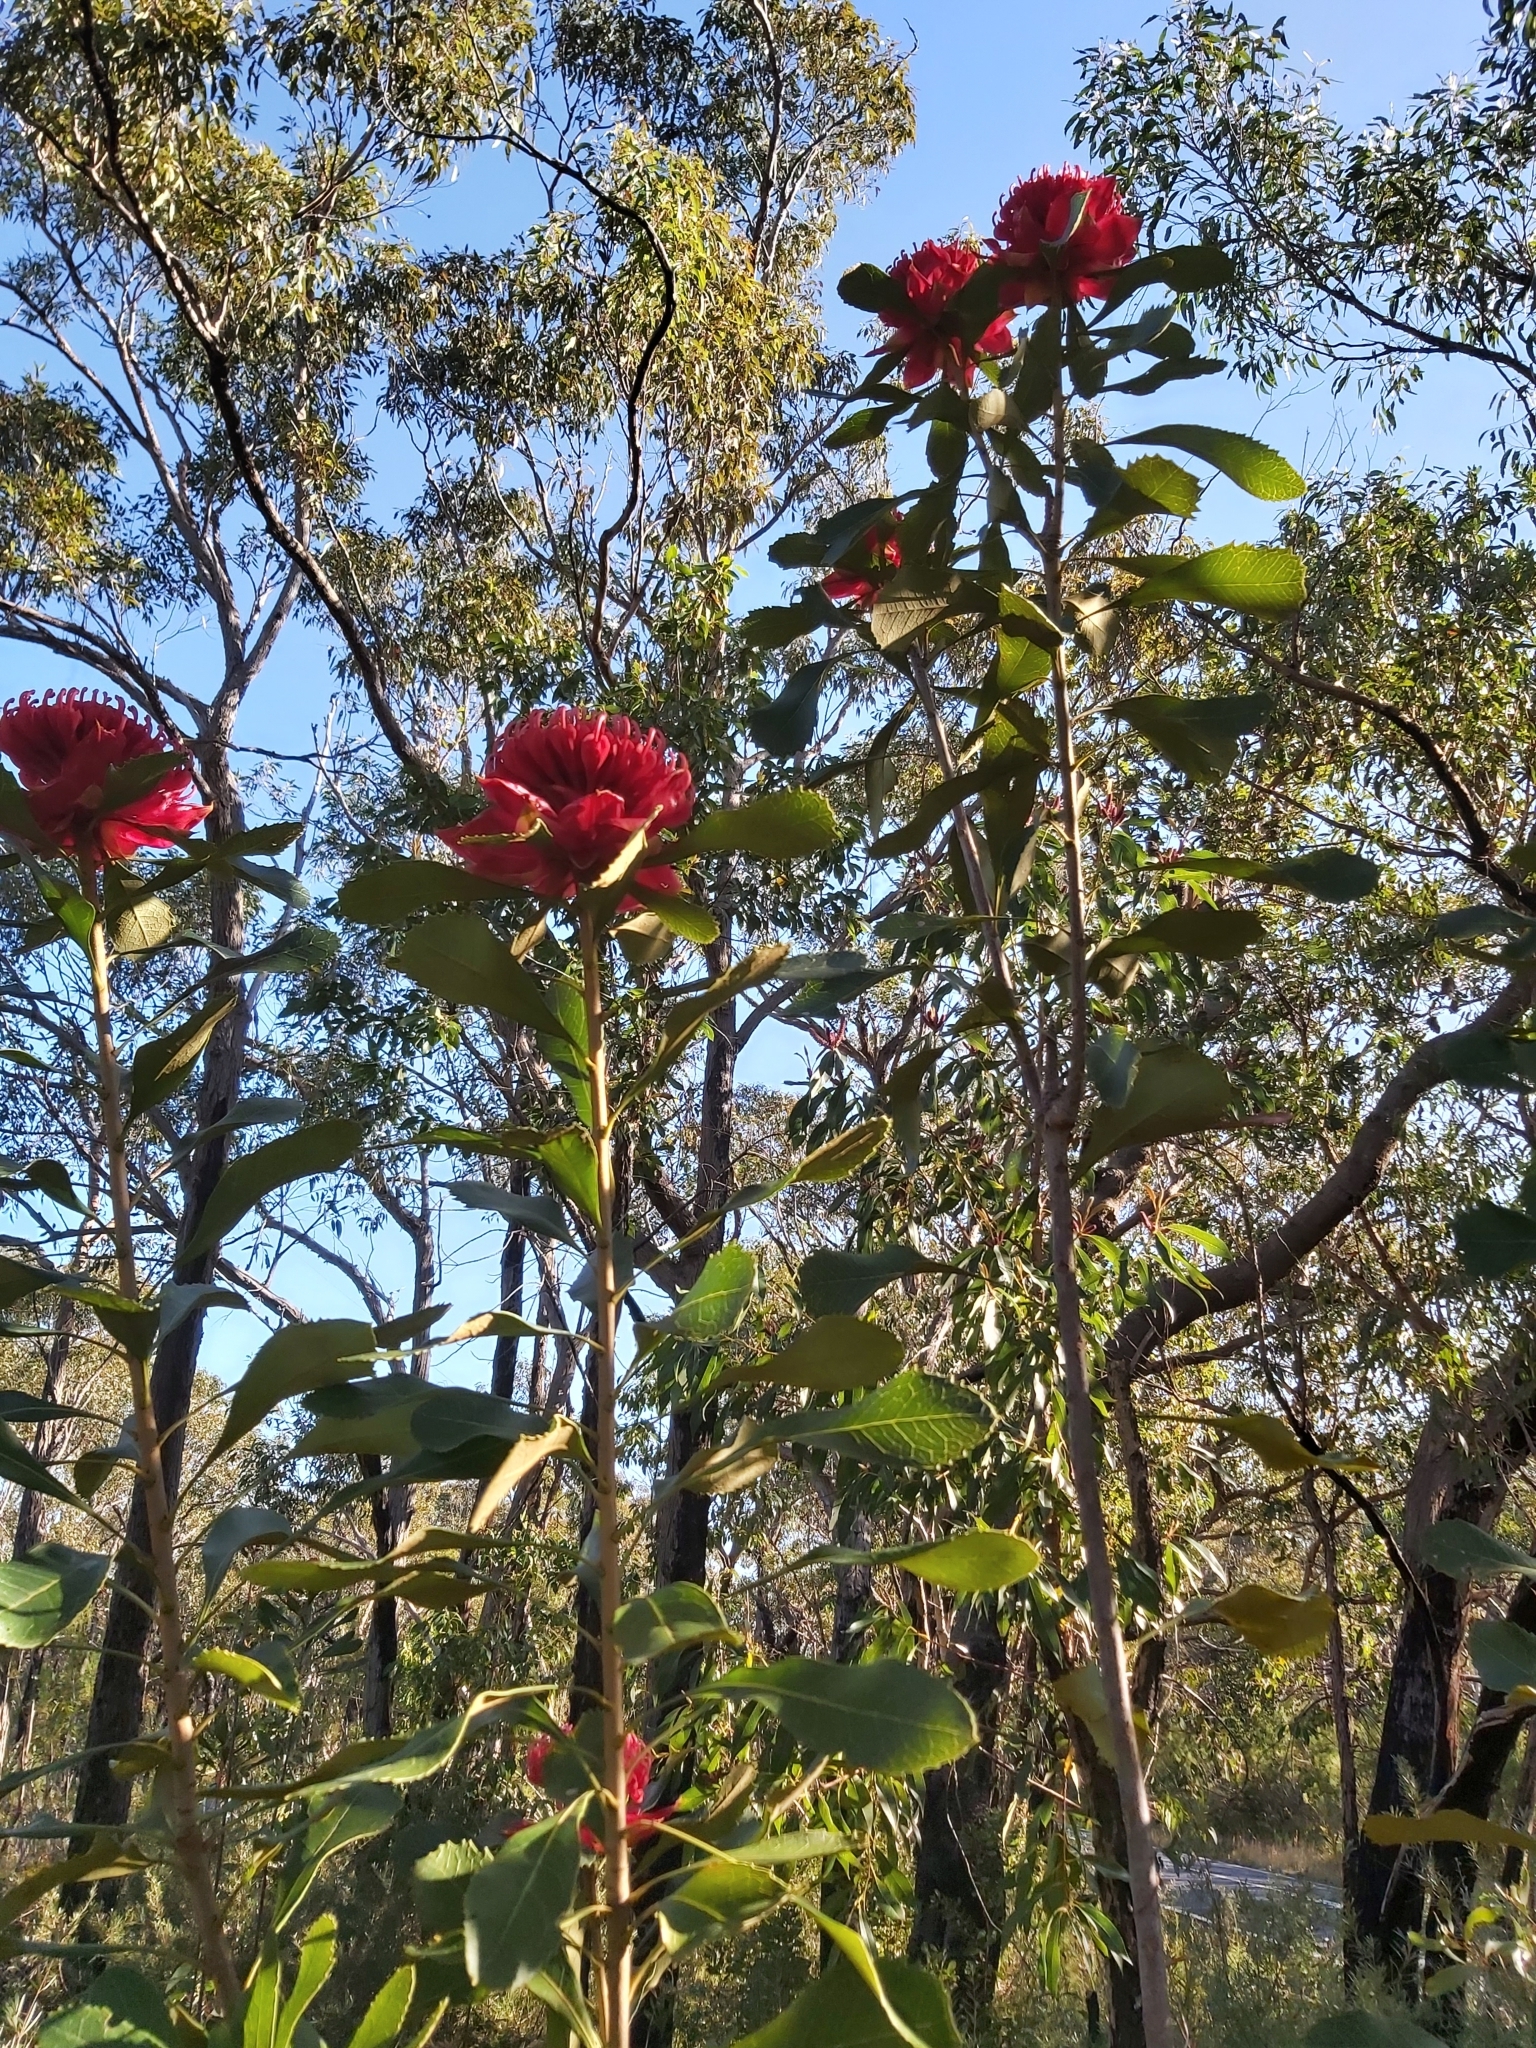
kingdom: Plantae
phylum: Tracheophyta
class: Magnoliopsida
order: Proteales
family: Proteaceae
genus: Telopea
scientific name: Telopea speciosissima
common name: New south wales waratah
